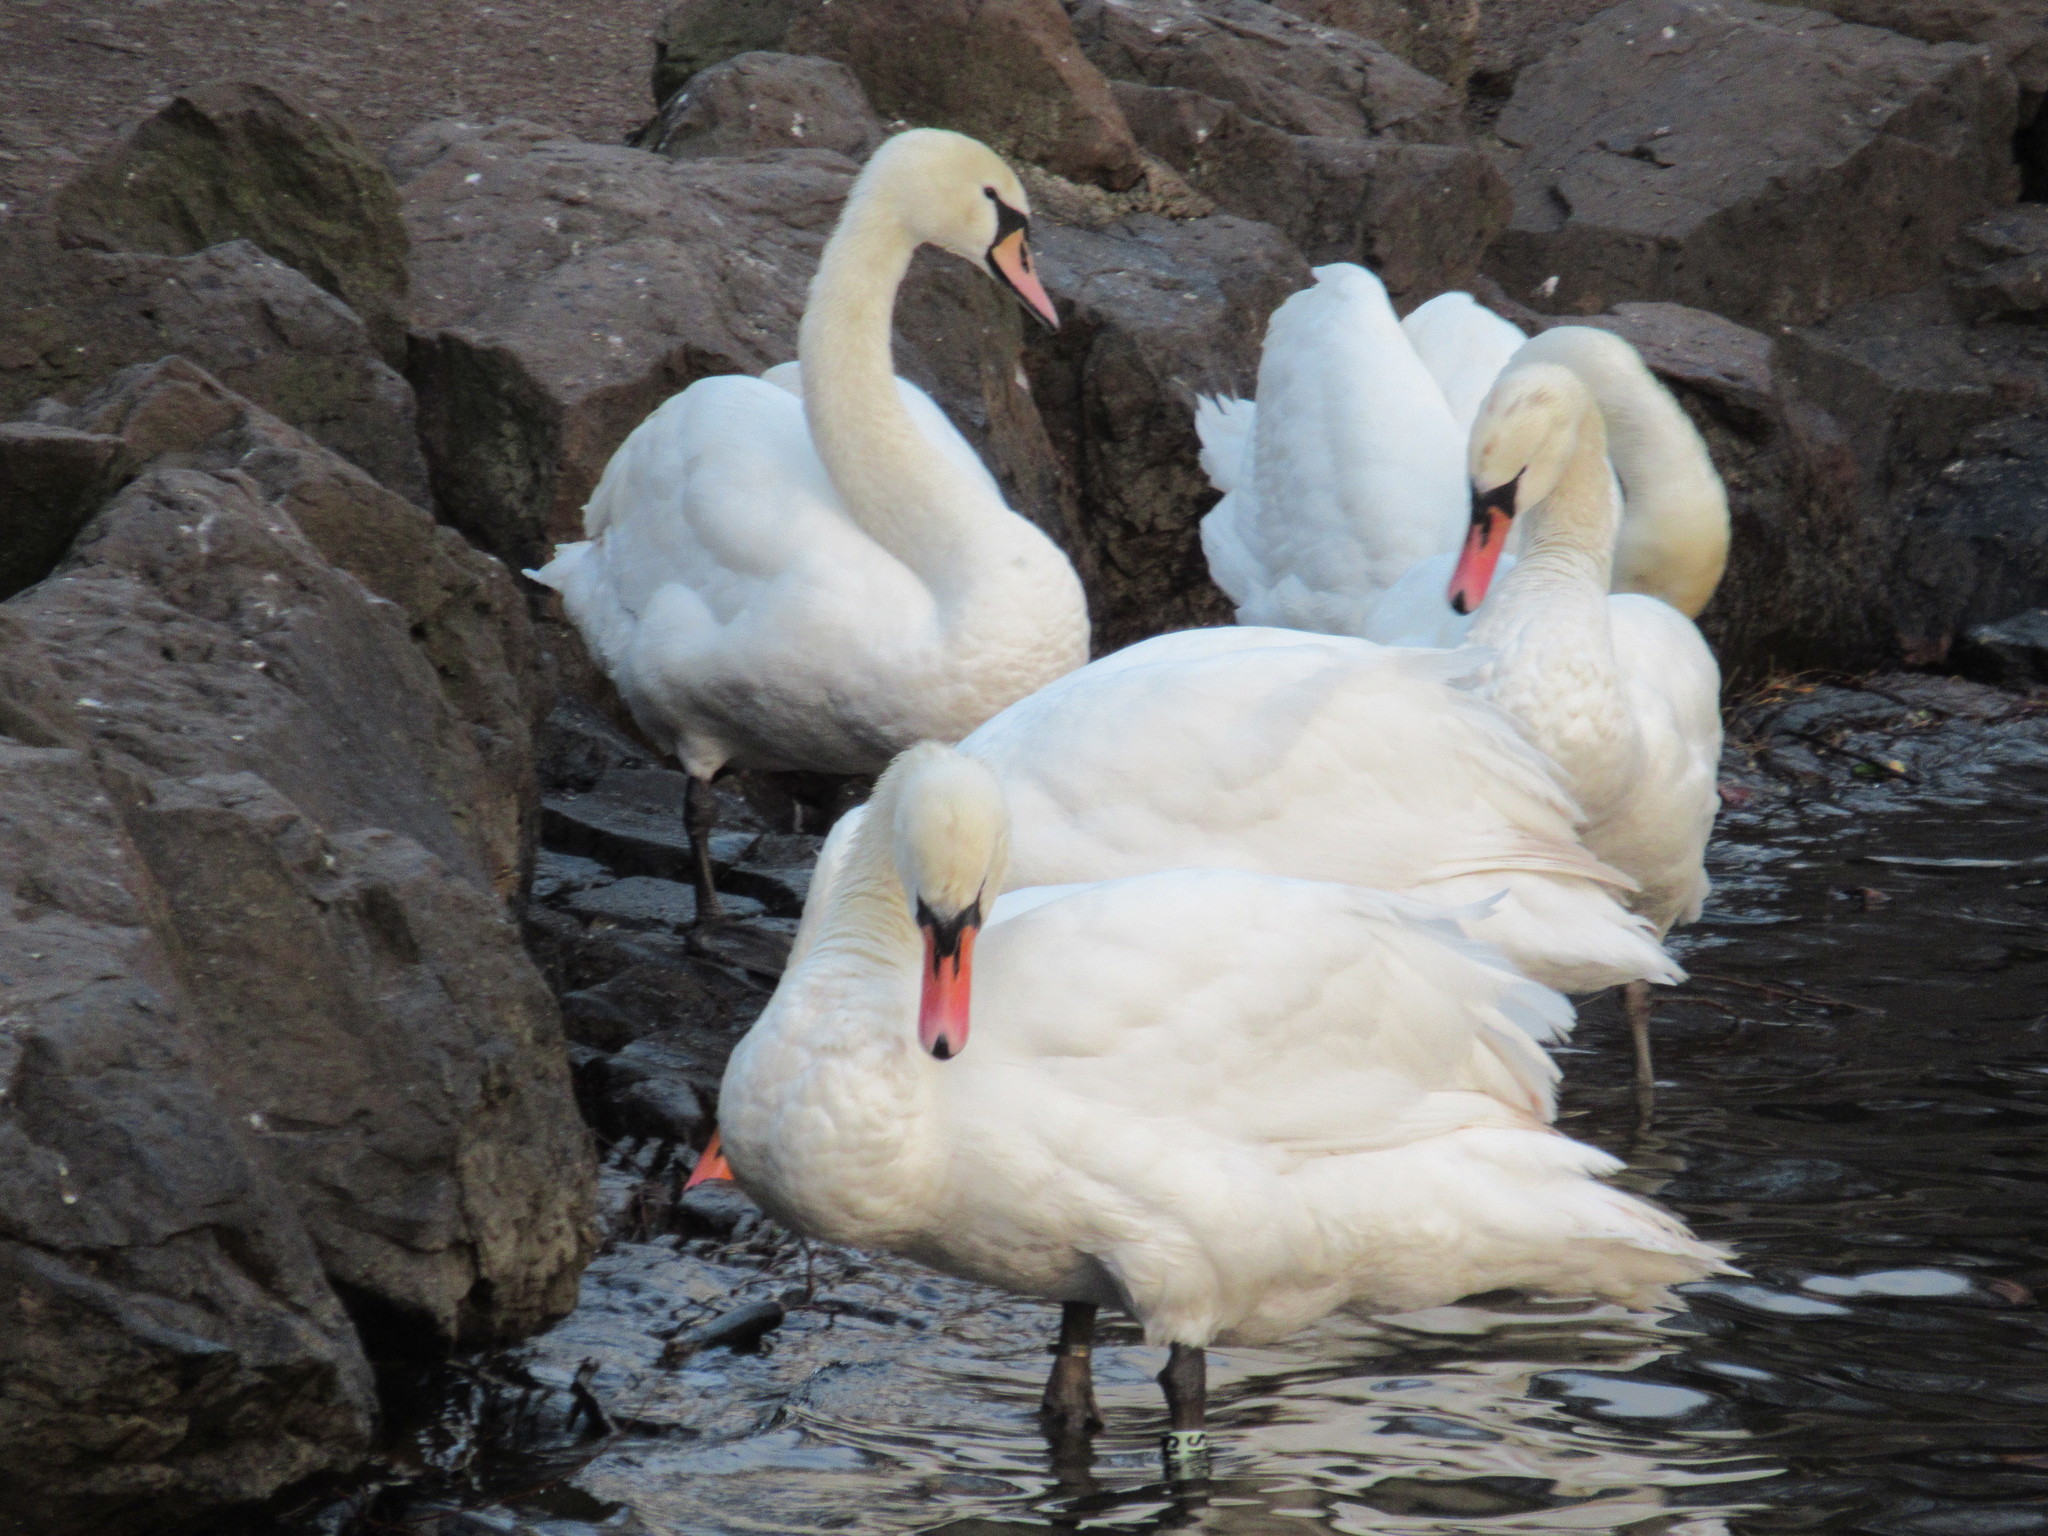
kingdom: Animalia
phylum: Chordata
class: Aves
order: Anseriformes
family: Anatidae
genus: Cygnus
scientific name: Cygnus olor
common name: Mute swan
